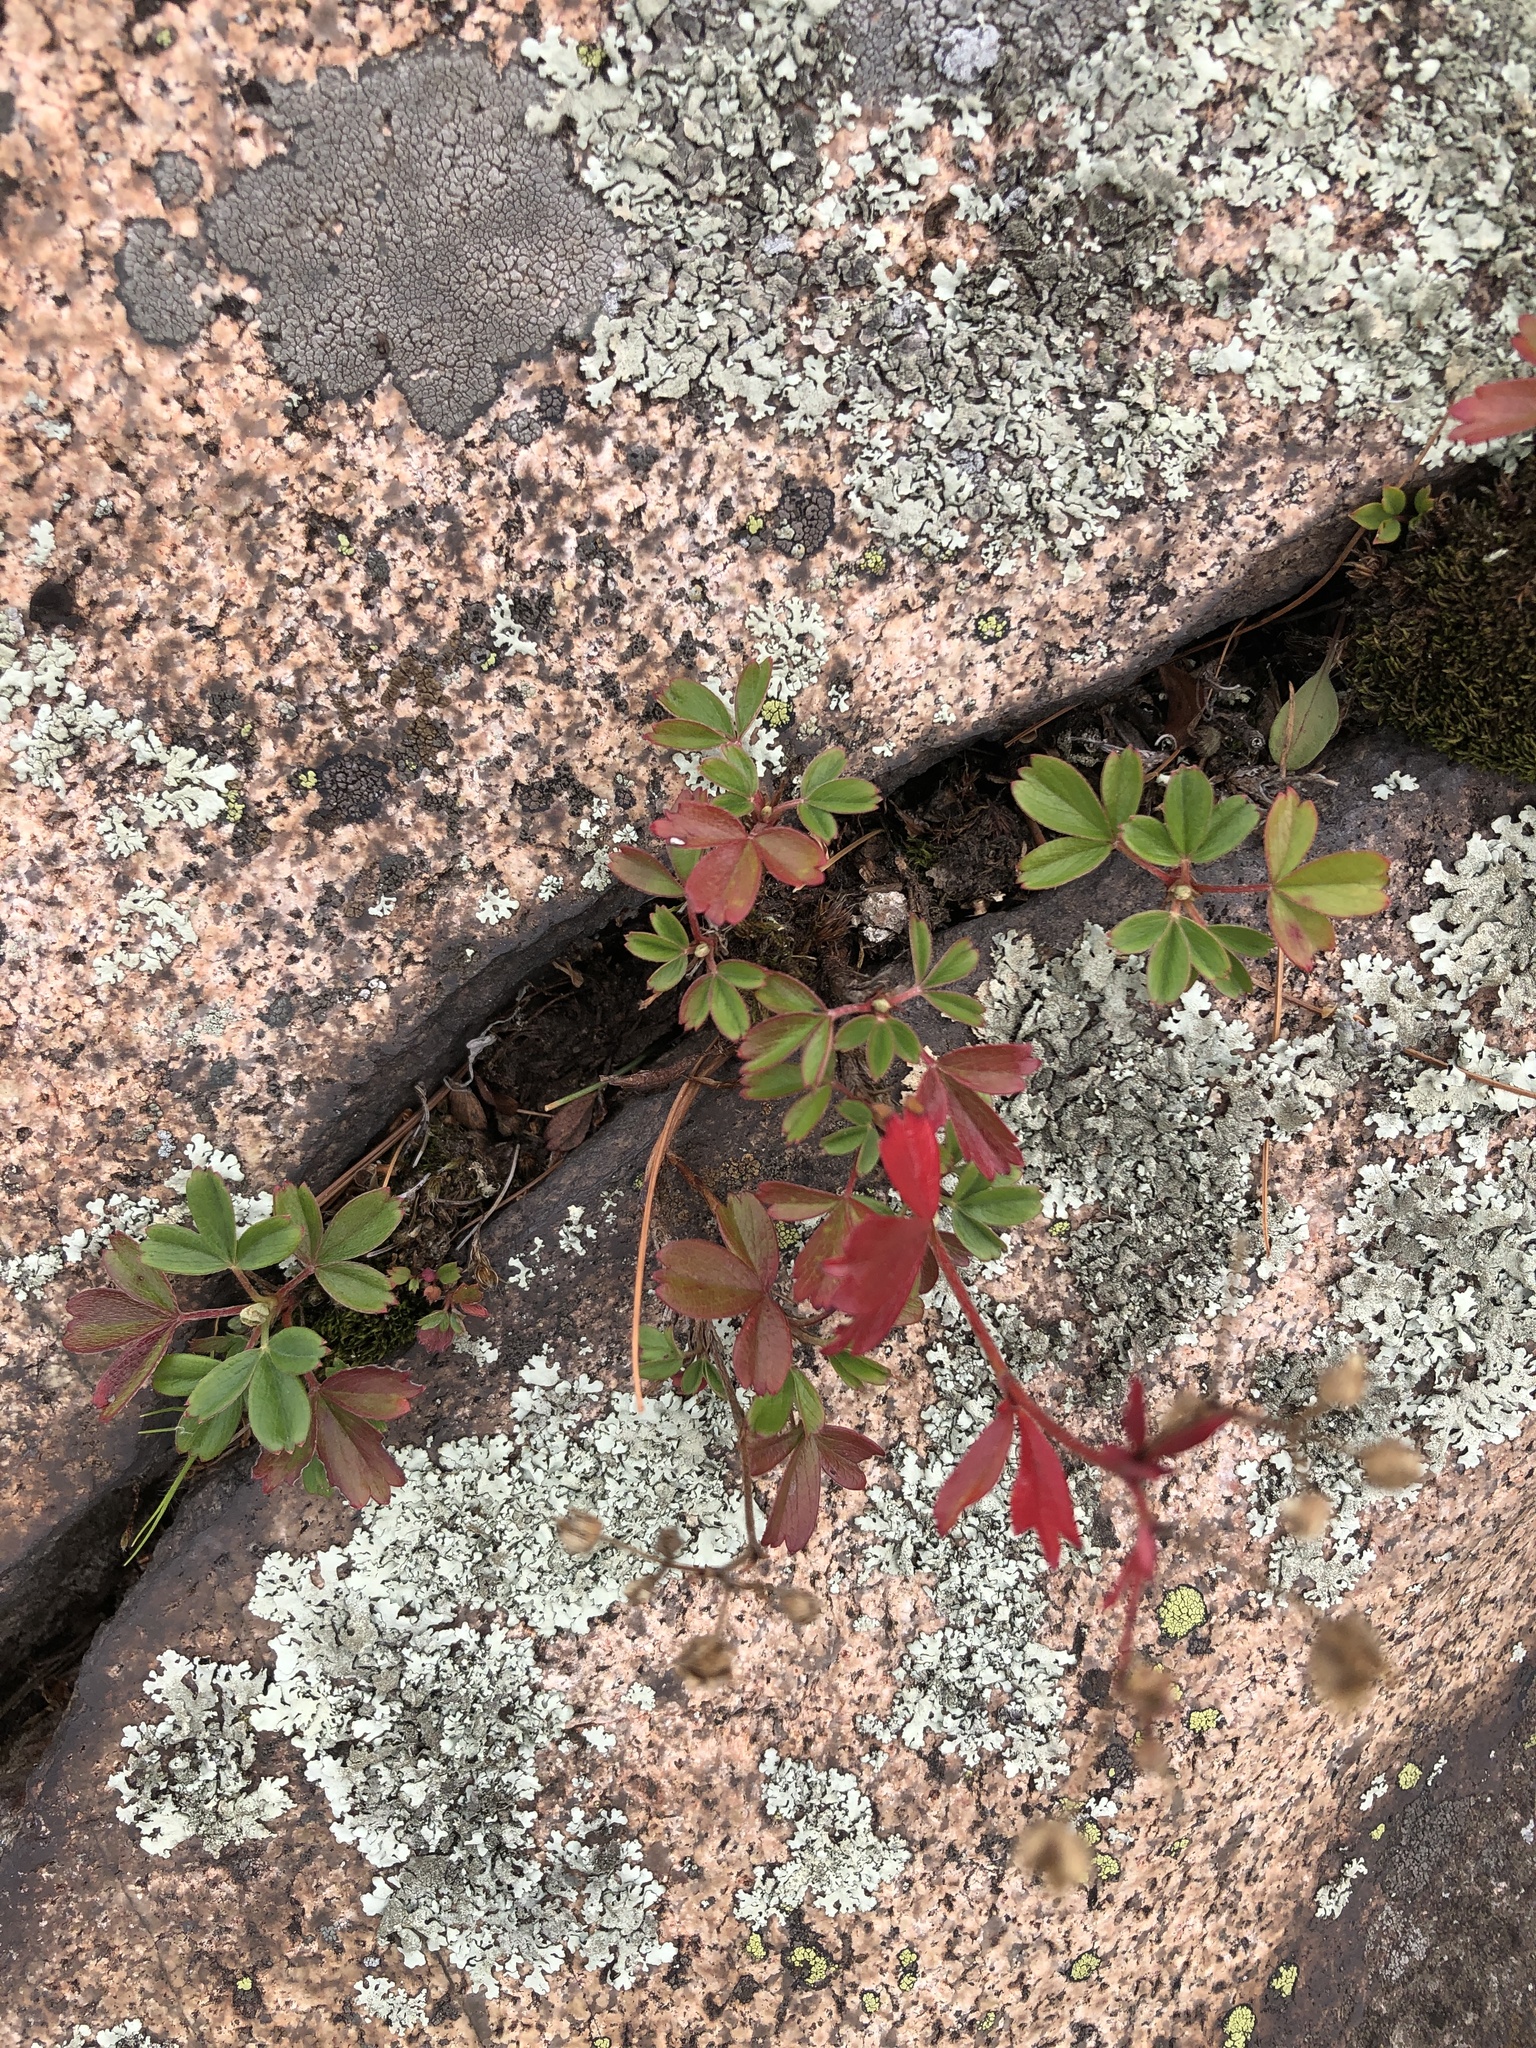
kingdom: Plantae
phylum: Tracheophyta
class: Magnoliopsida
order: Rosales
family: Rosaceae
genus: Sibbaldia
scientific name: Sibbaldia tridentata
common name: Three-toothed cinquefoil
